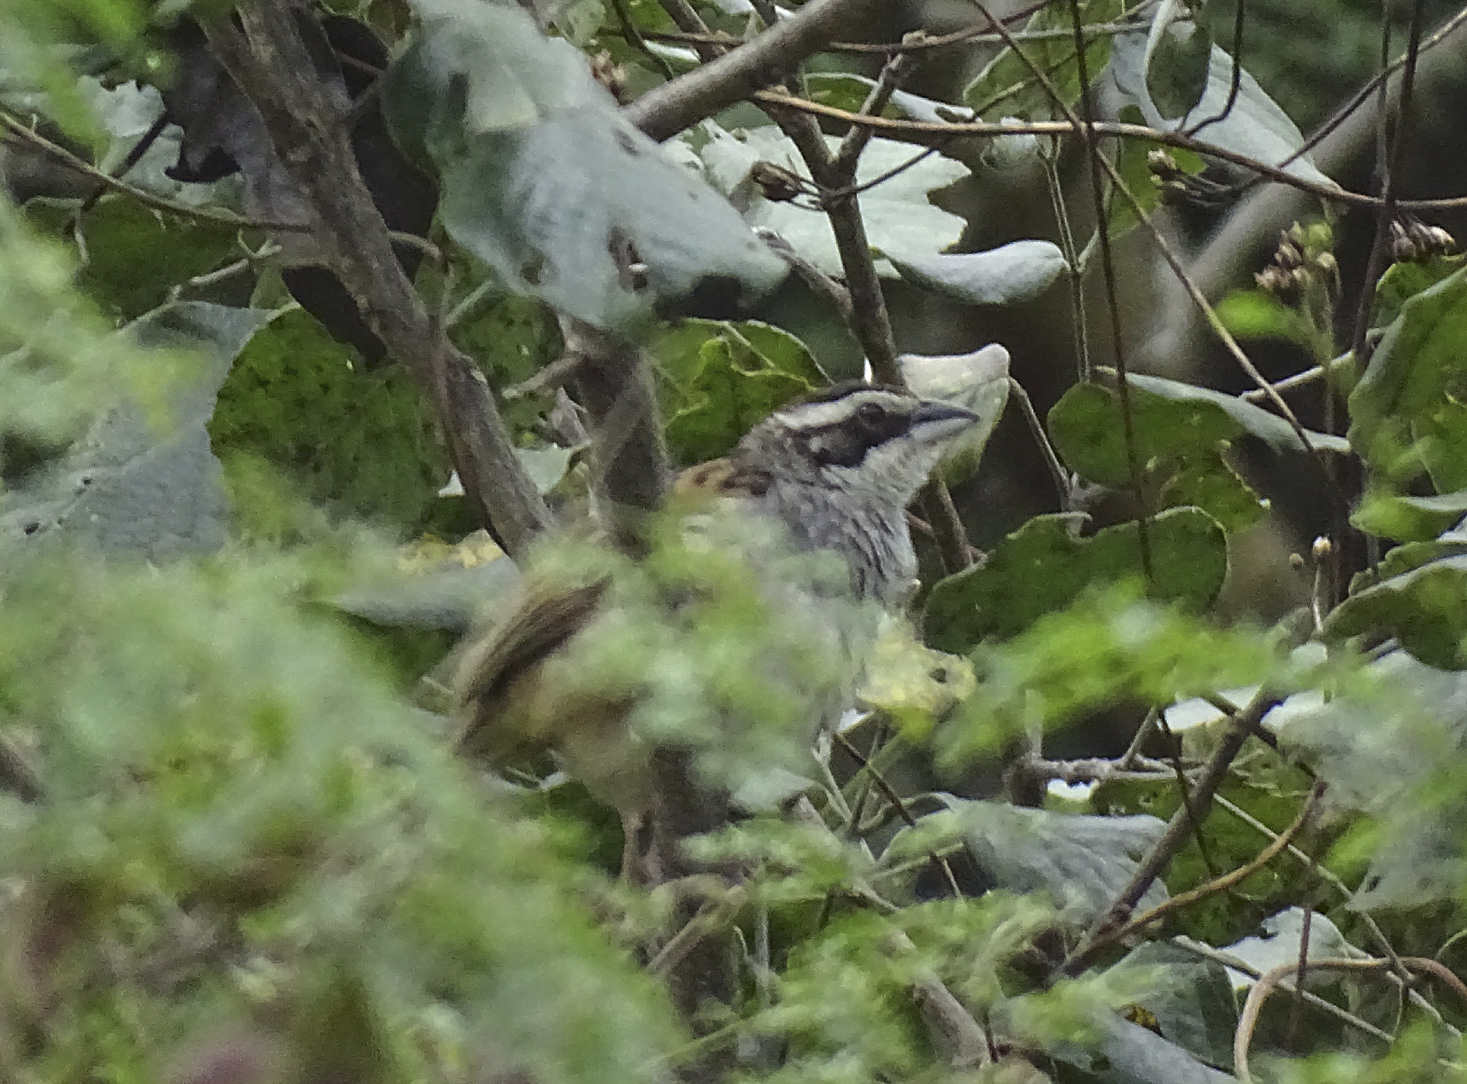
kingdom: Animalia
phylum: Chordata
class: Aves
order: Passeriformes
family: Passerellidae
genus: Peucaea
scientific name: Peucaea ruficauda
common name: Stripe-headed sparrow
